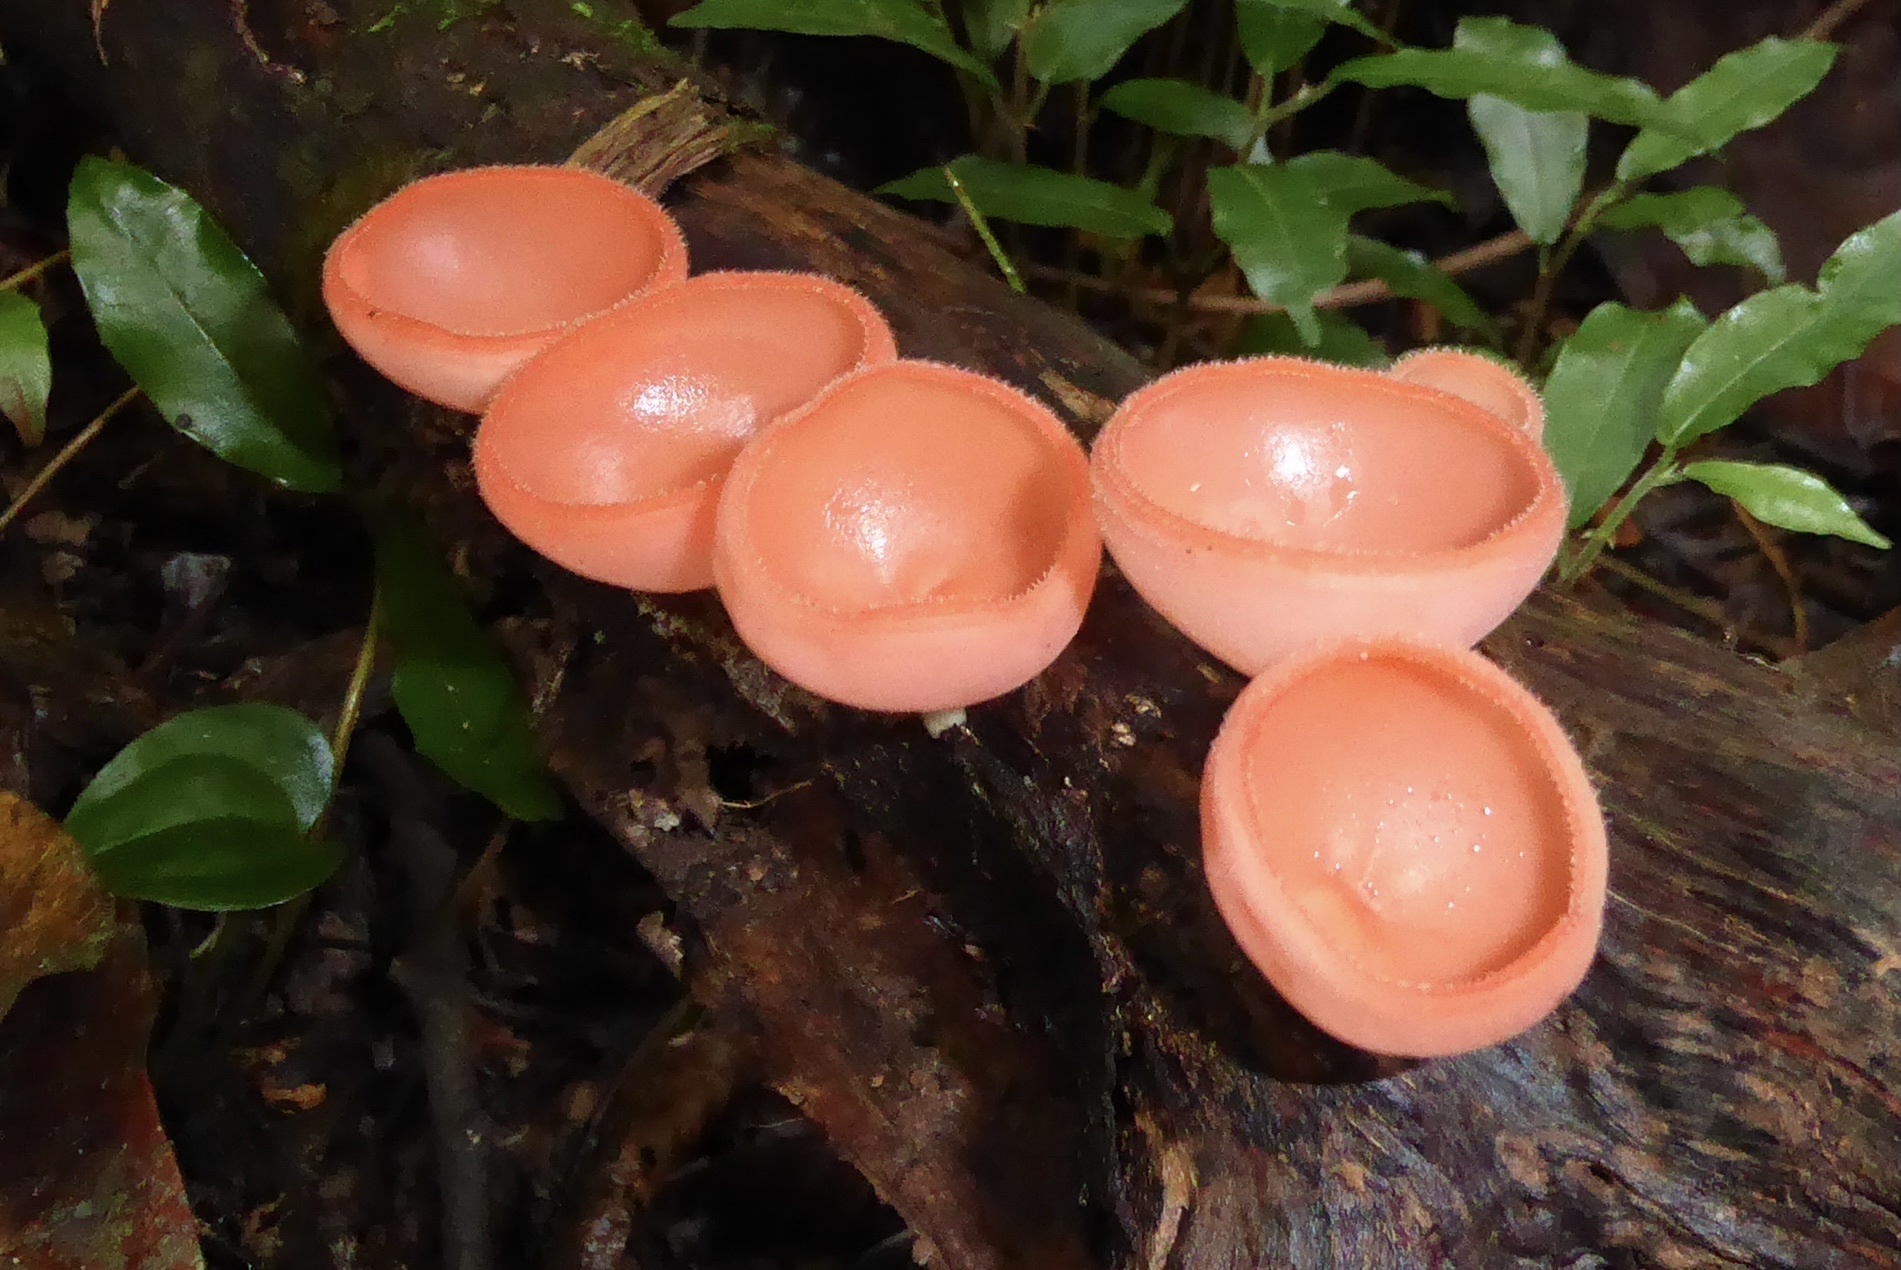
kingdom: Fungi
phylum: Ascomycota
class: Pezizomycetes
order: Pezizales
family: Sarcoscyphaceae
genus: Cookeina
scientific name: Cookeina speciosa
